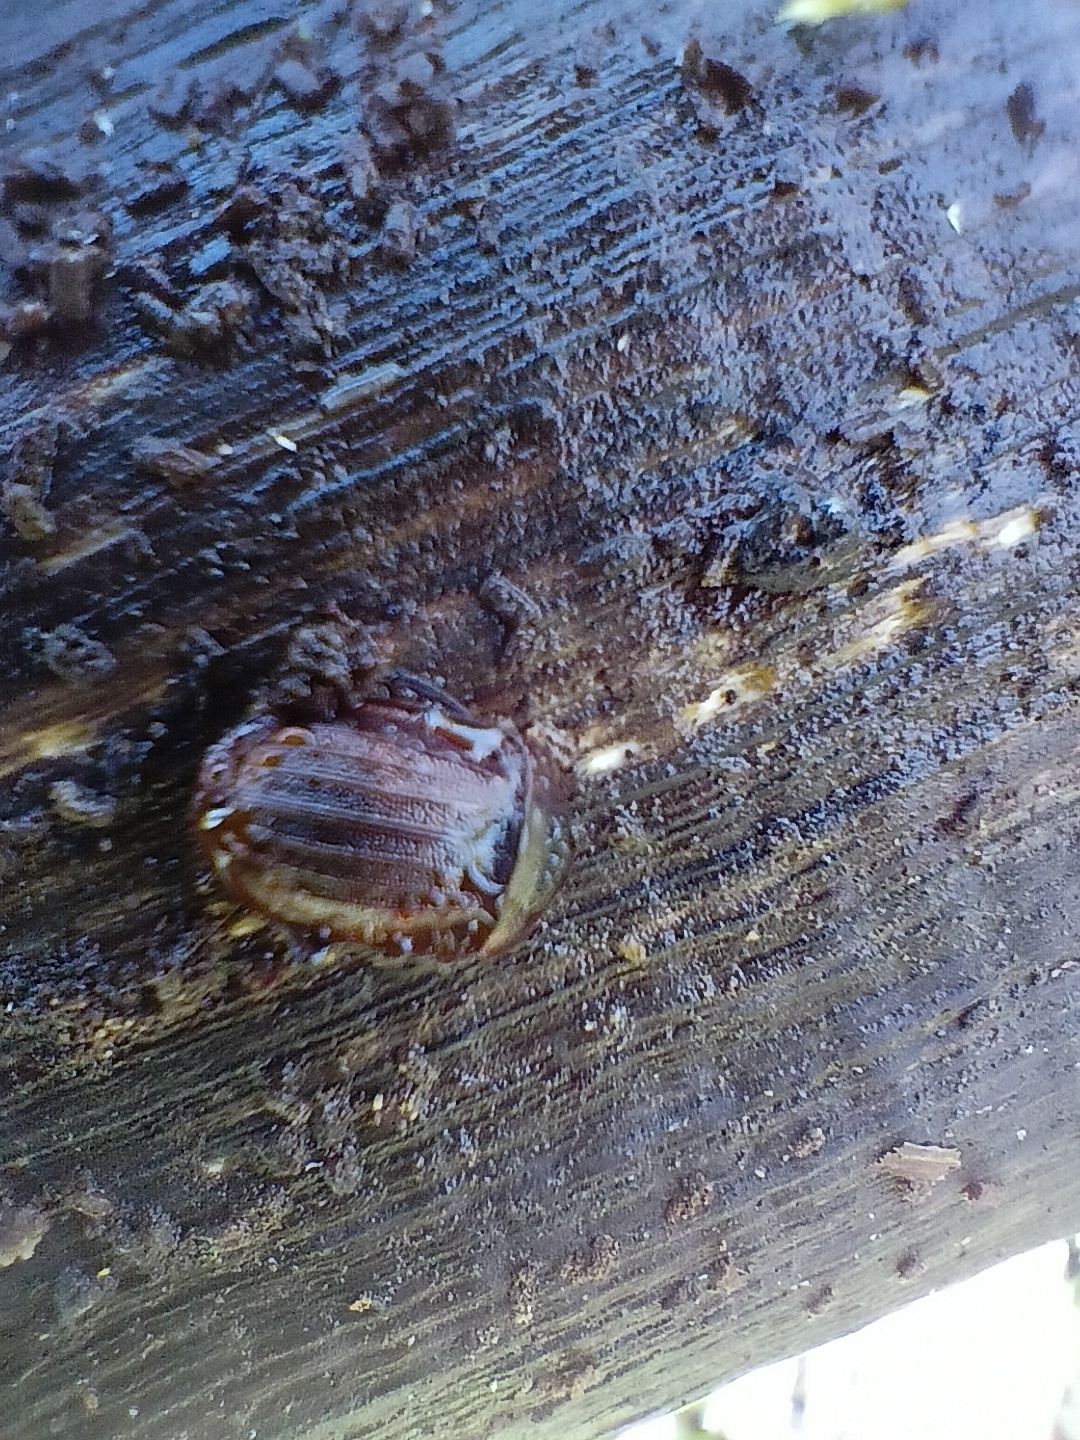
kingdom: Animalia
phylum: Arthropoda
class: Insecta
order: Coleoptera
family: Staphylinidae
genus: Silpha
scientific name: Silpha atrata
